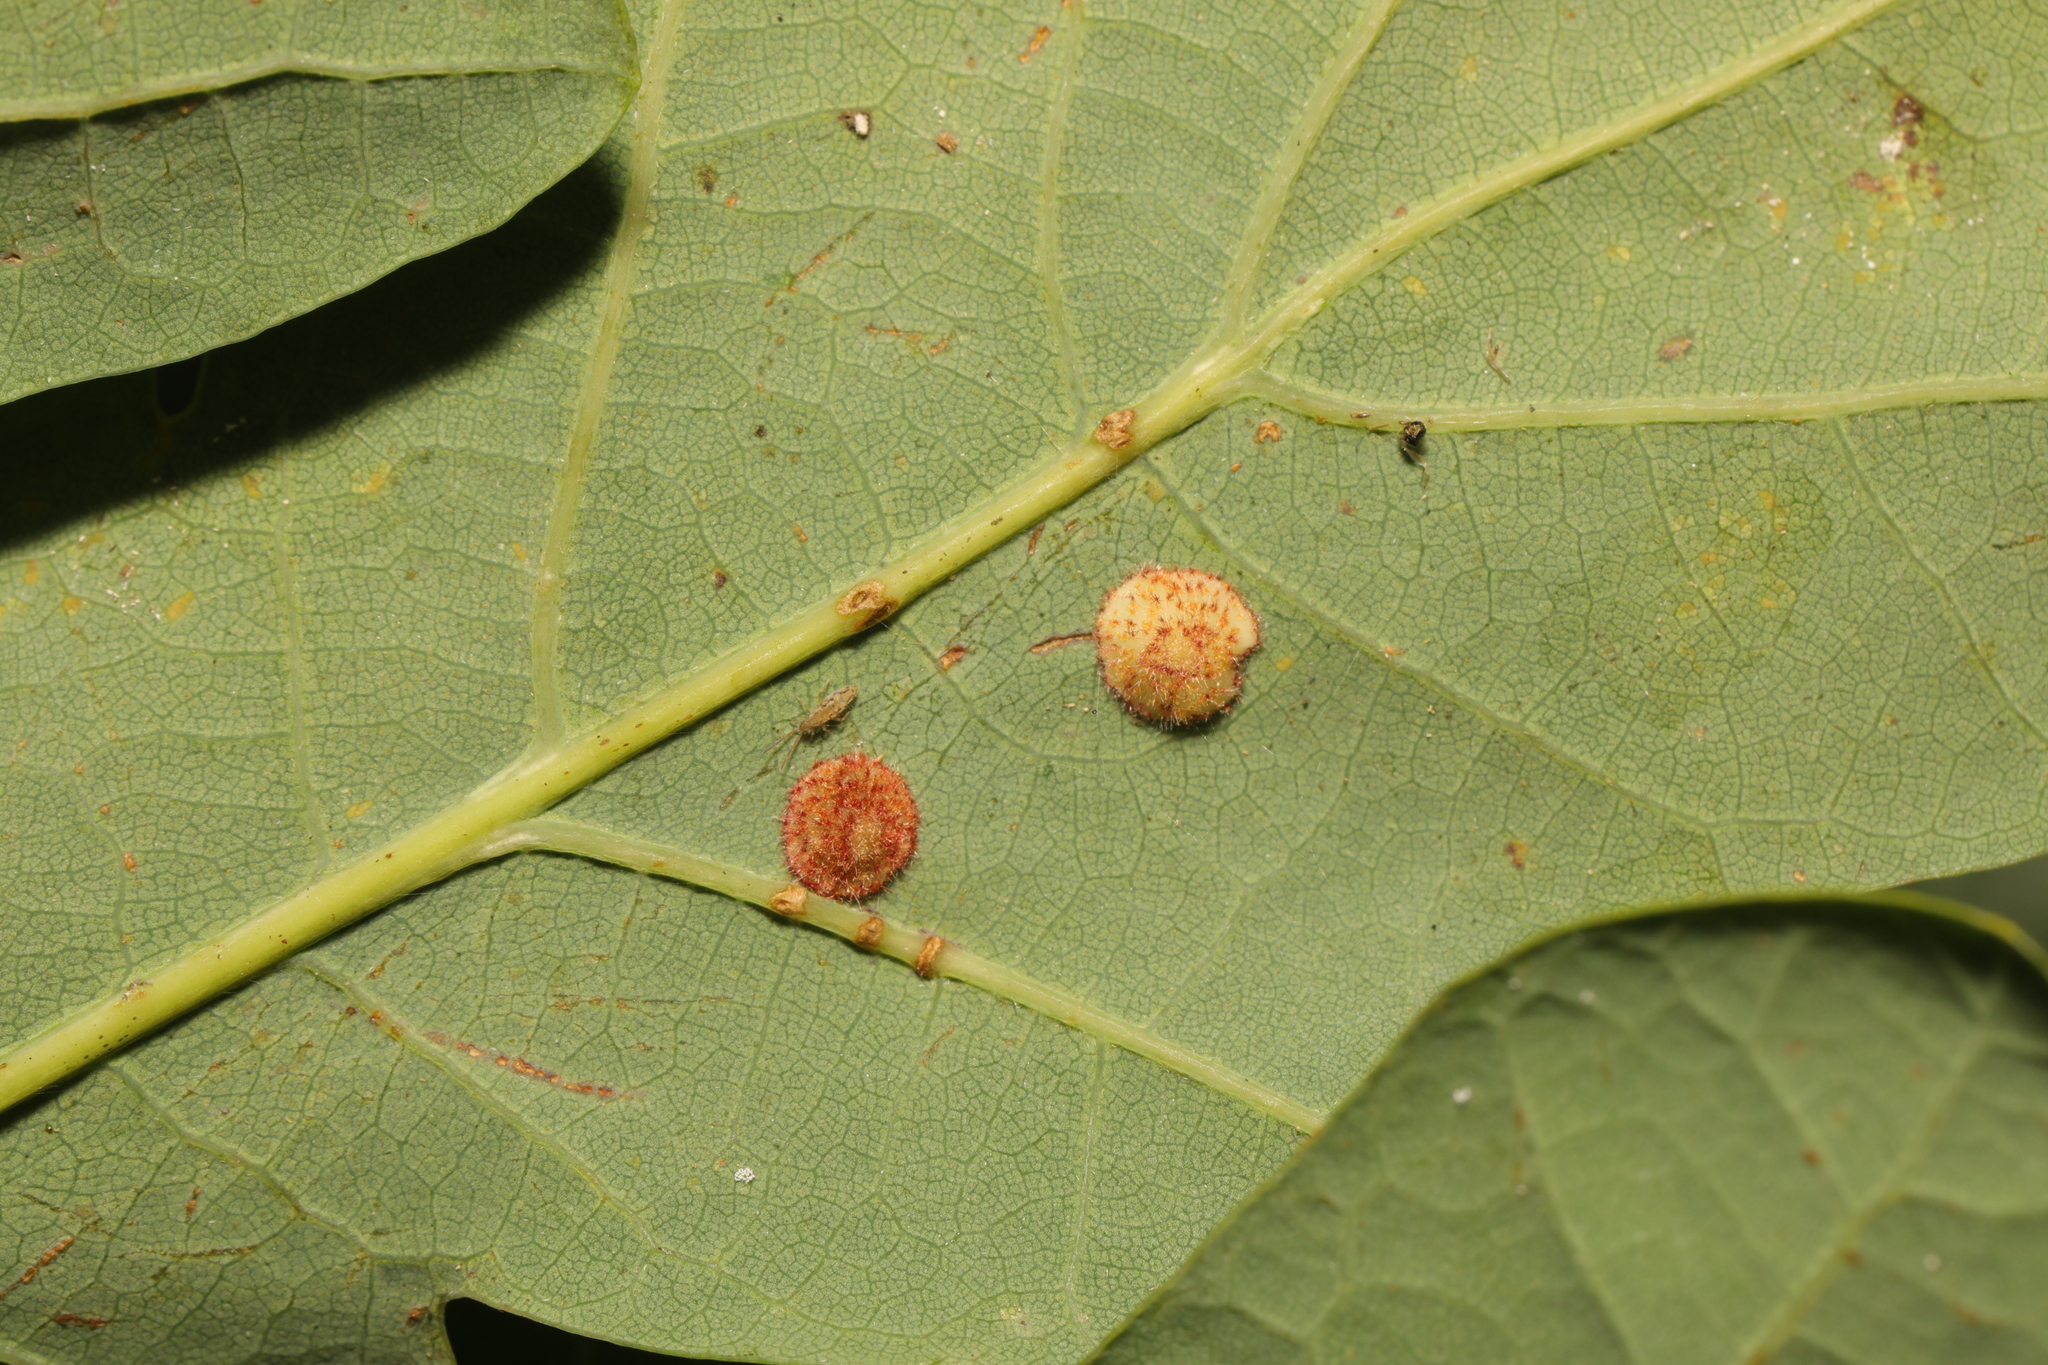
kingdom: Animalia
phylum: Arthropoda
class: Insecta
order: Hymenoptera
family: Cynipidae
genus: Neuroterus
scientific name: Neuroterus quercusbaccarum
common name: Common spangle gall
